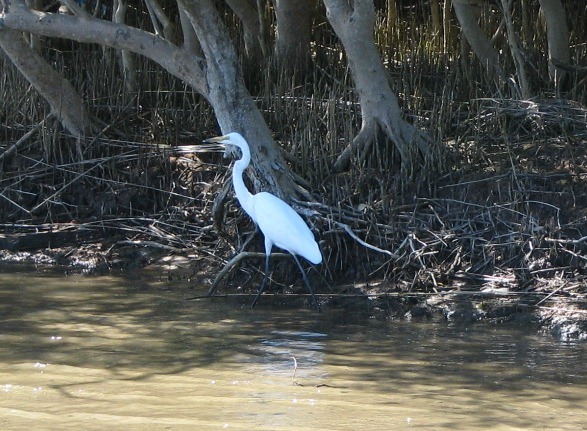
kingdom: Animalia
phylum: Chordata
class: Aves
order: Pelecaniformes
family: Ardeidae
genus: Ardea
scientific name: Ardea alba
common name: Great egret
